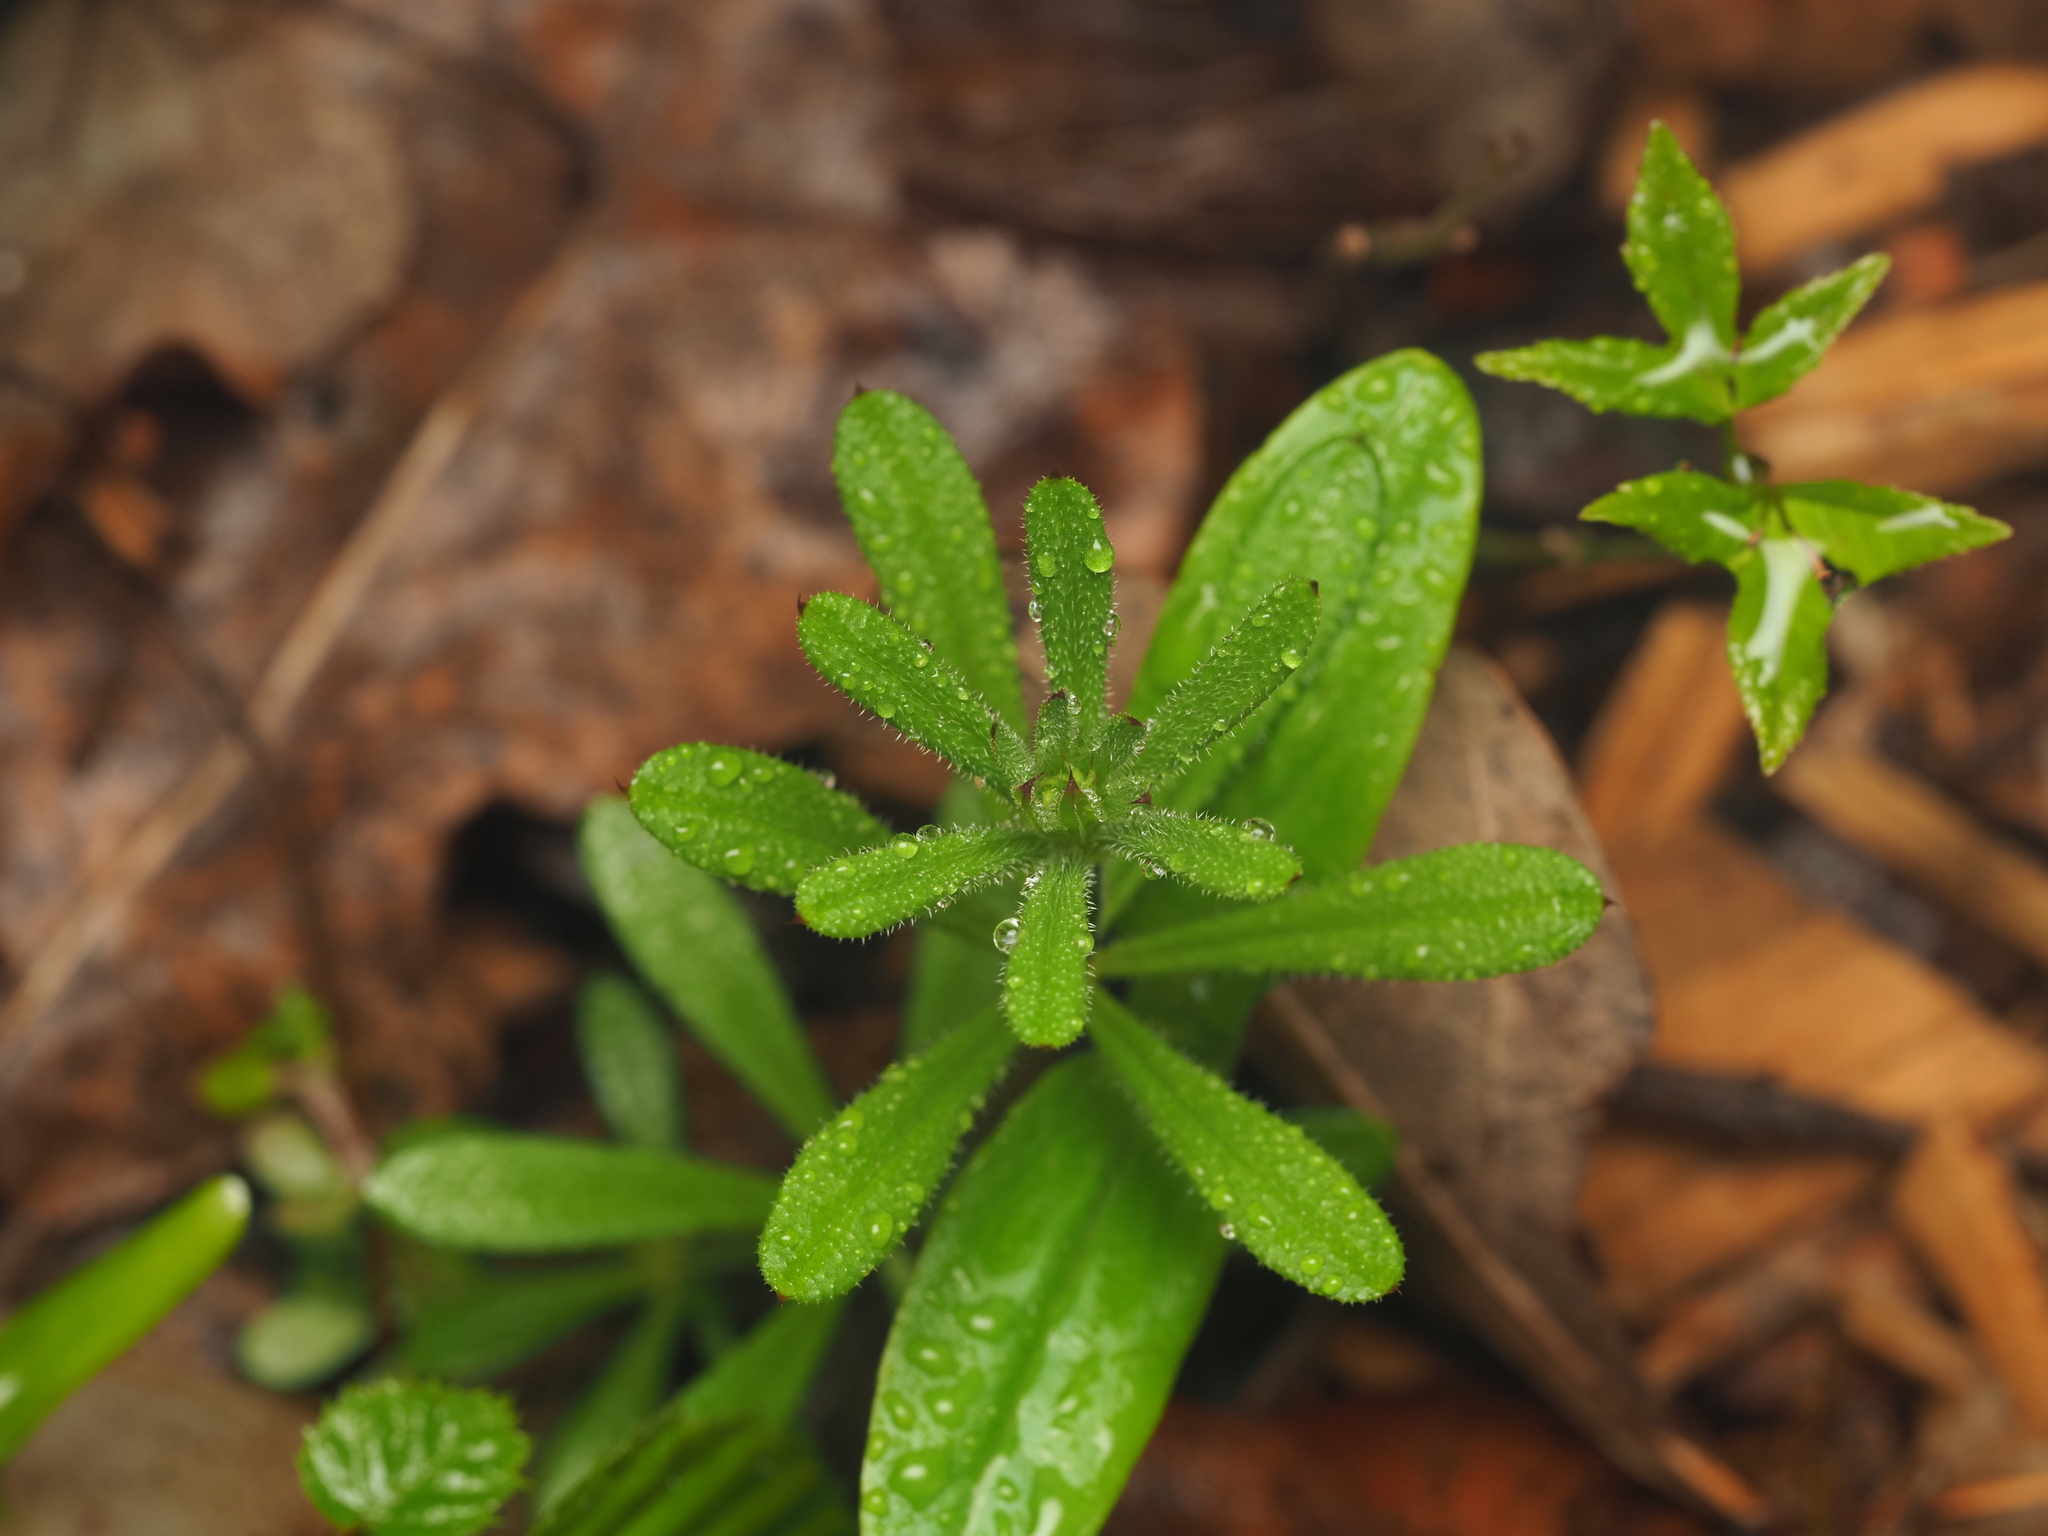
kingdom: Plantae
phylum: Tracheophyta
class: Magnoliopsida
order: Gentianales
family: Rubiaceae
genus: Galium
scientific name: Galium aparine
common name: Cleavers
